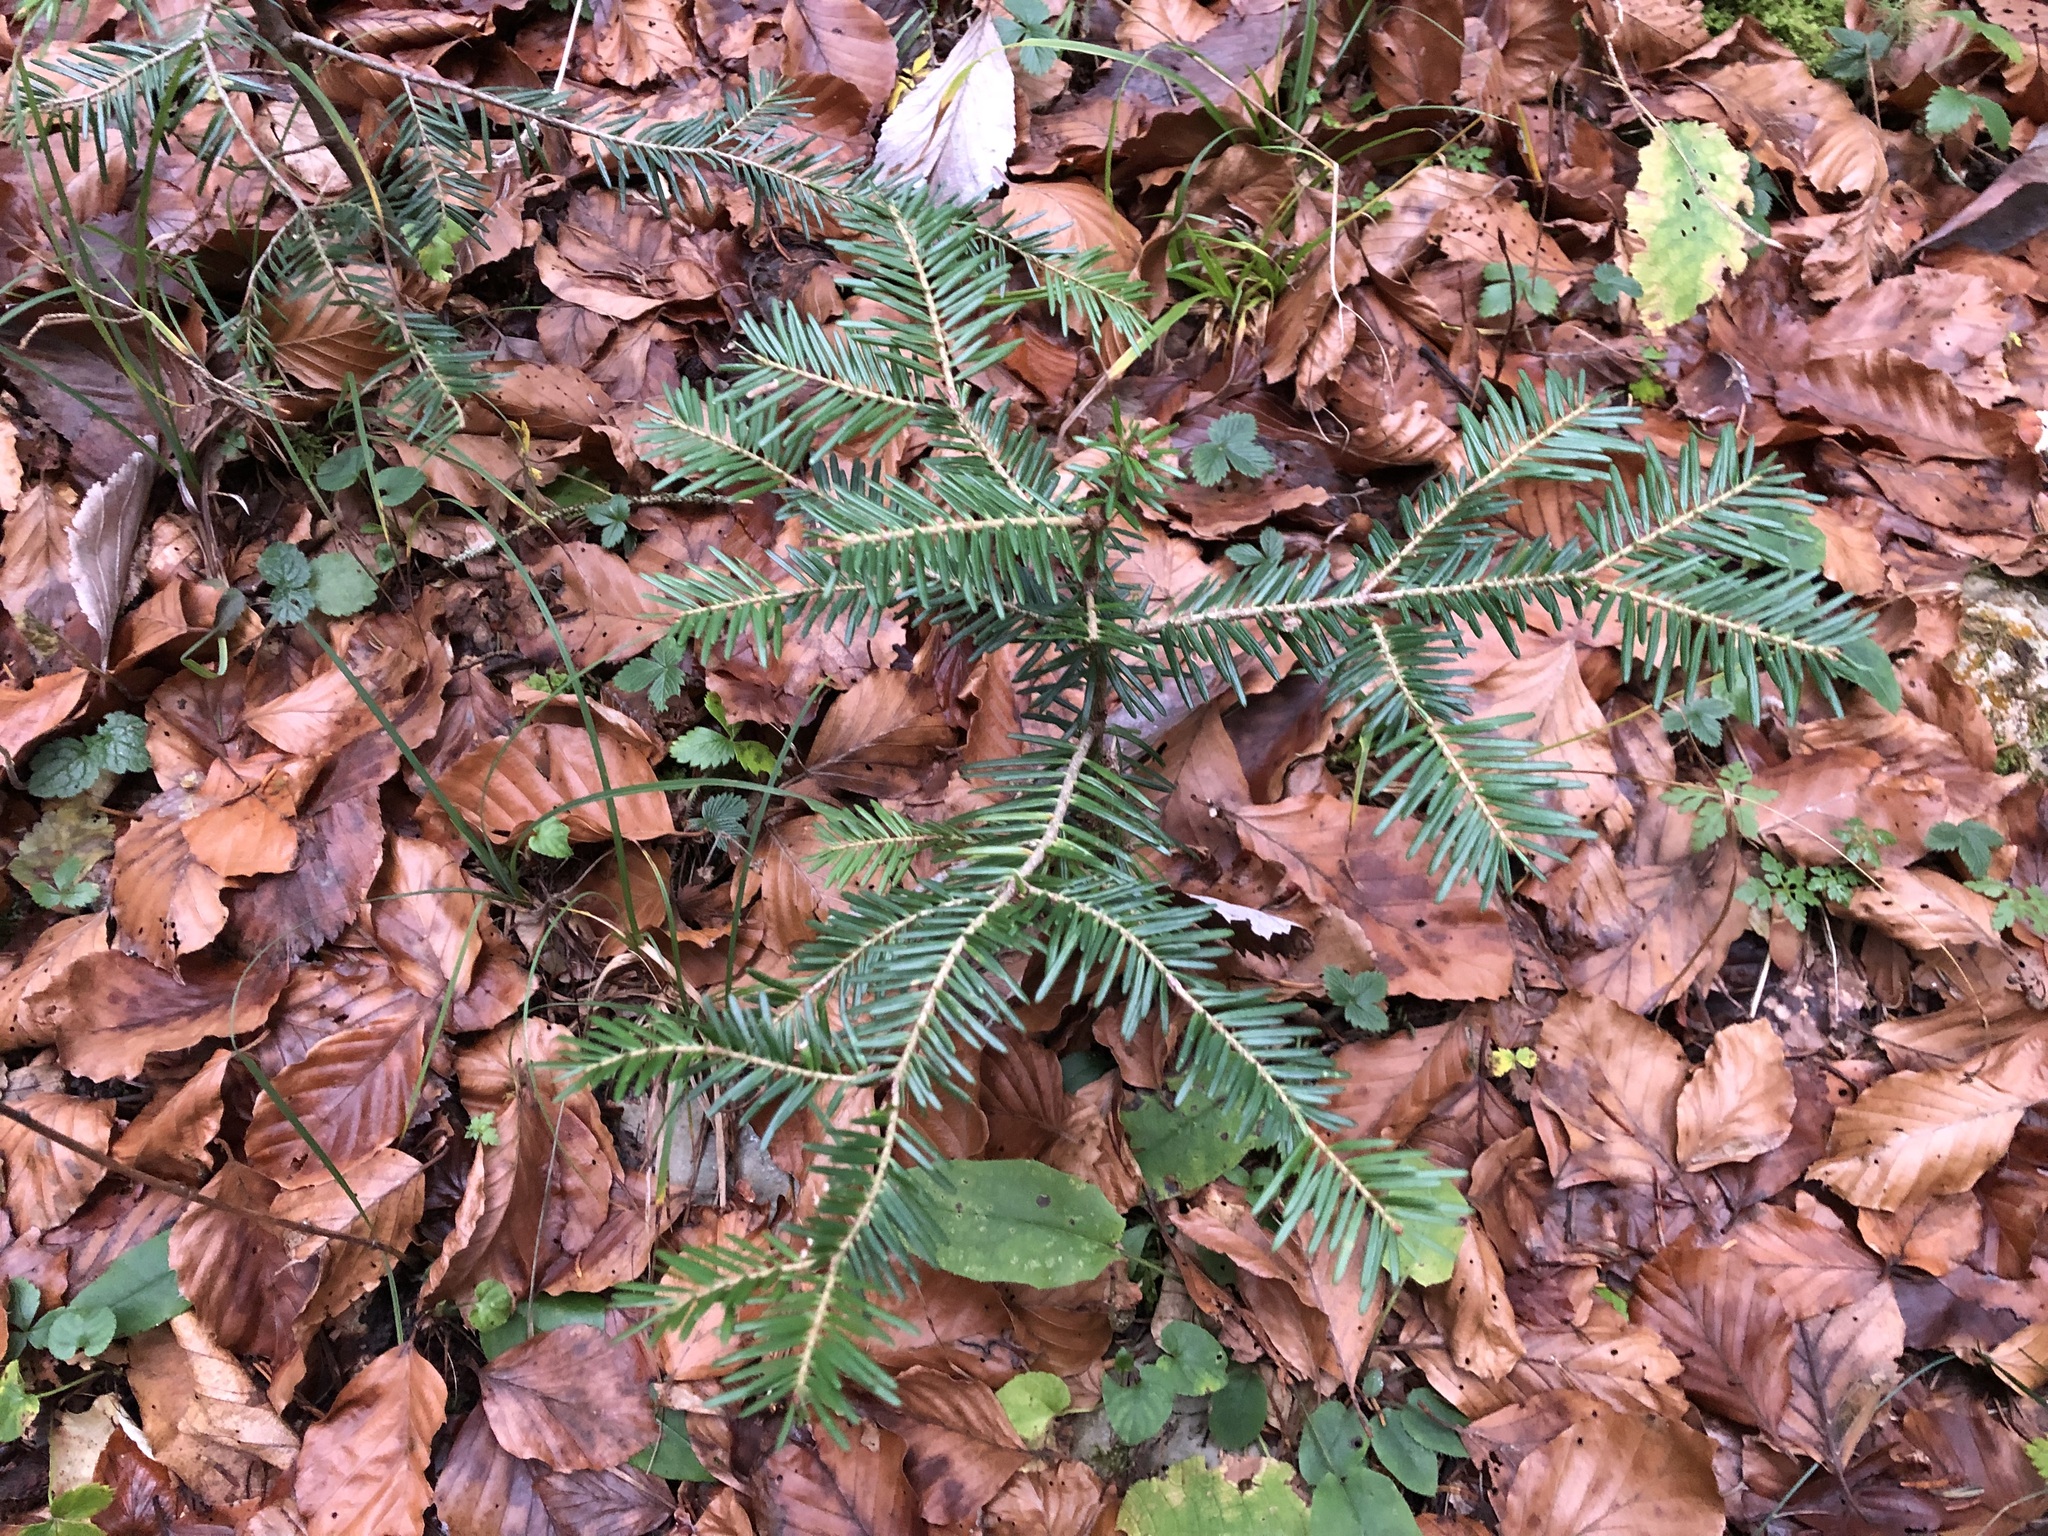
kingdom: Plantae
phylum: Tracheophyta
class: Pinopsida
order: Pinales
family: Pinaceae
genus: Abies
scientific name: Abies alba
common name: Silver fir
